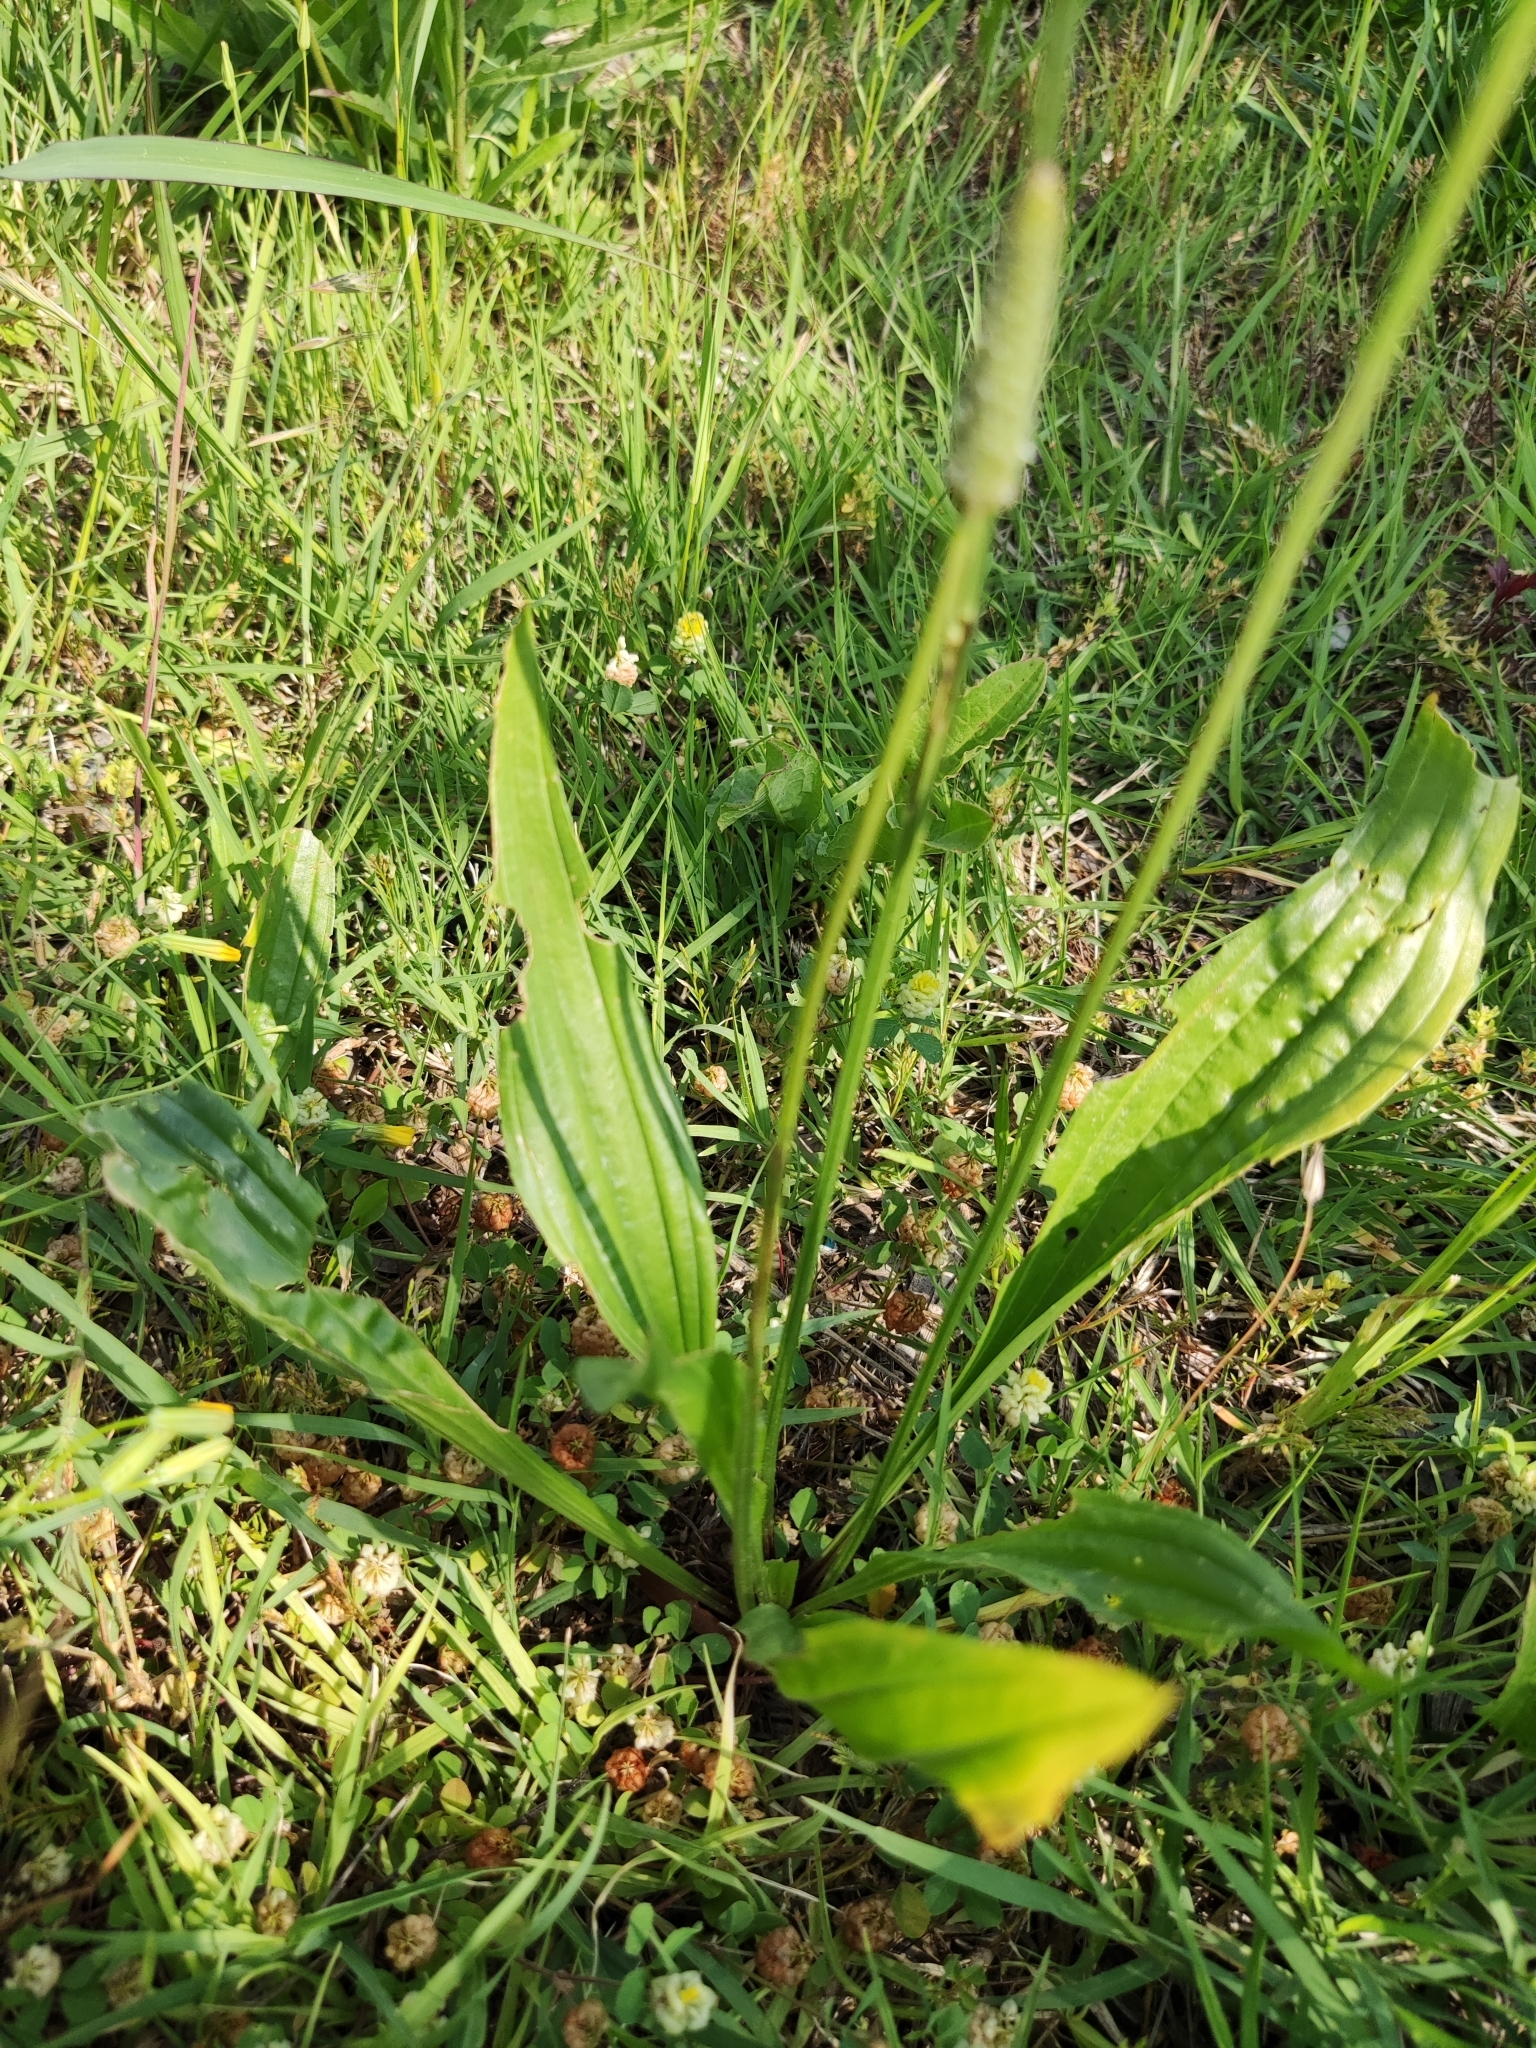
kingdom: Plantae
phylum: Tracheophyta
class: Magnoliopsida
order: Lamiales
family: Plantaginaceae
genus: Plantago
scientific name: Plantago lanceolata
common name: Ribwort plantain
